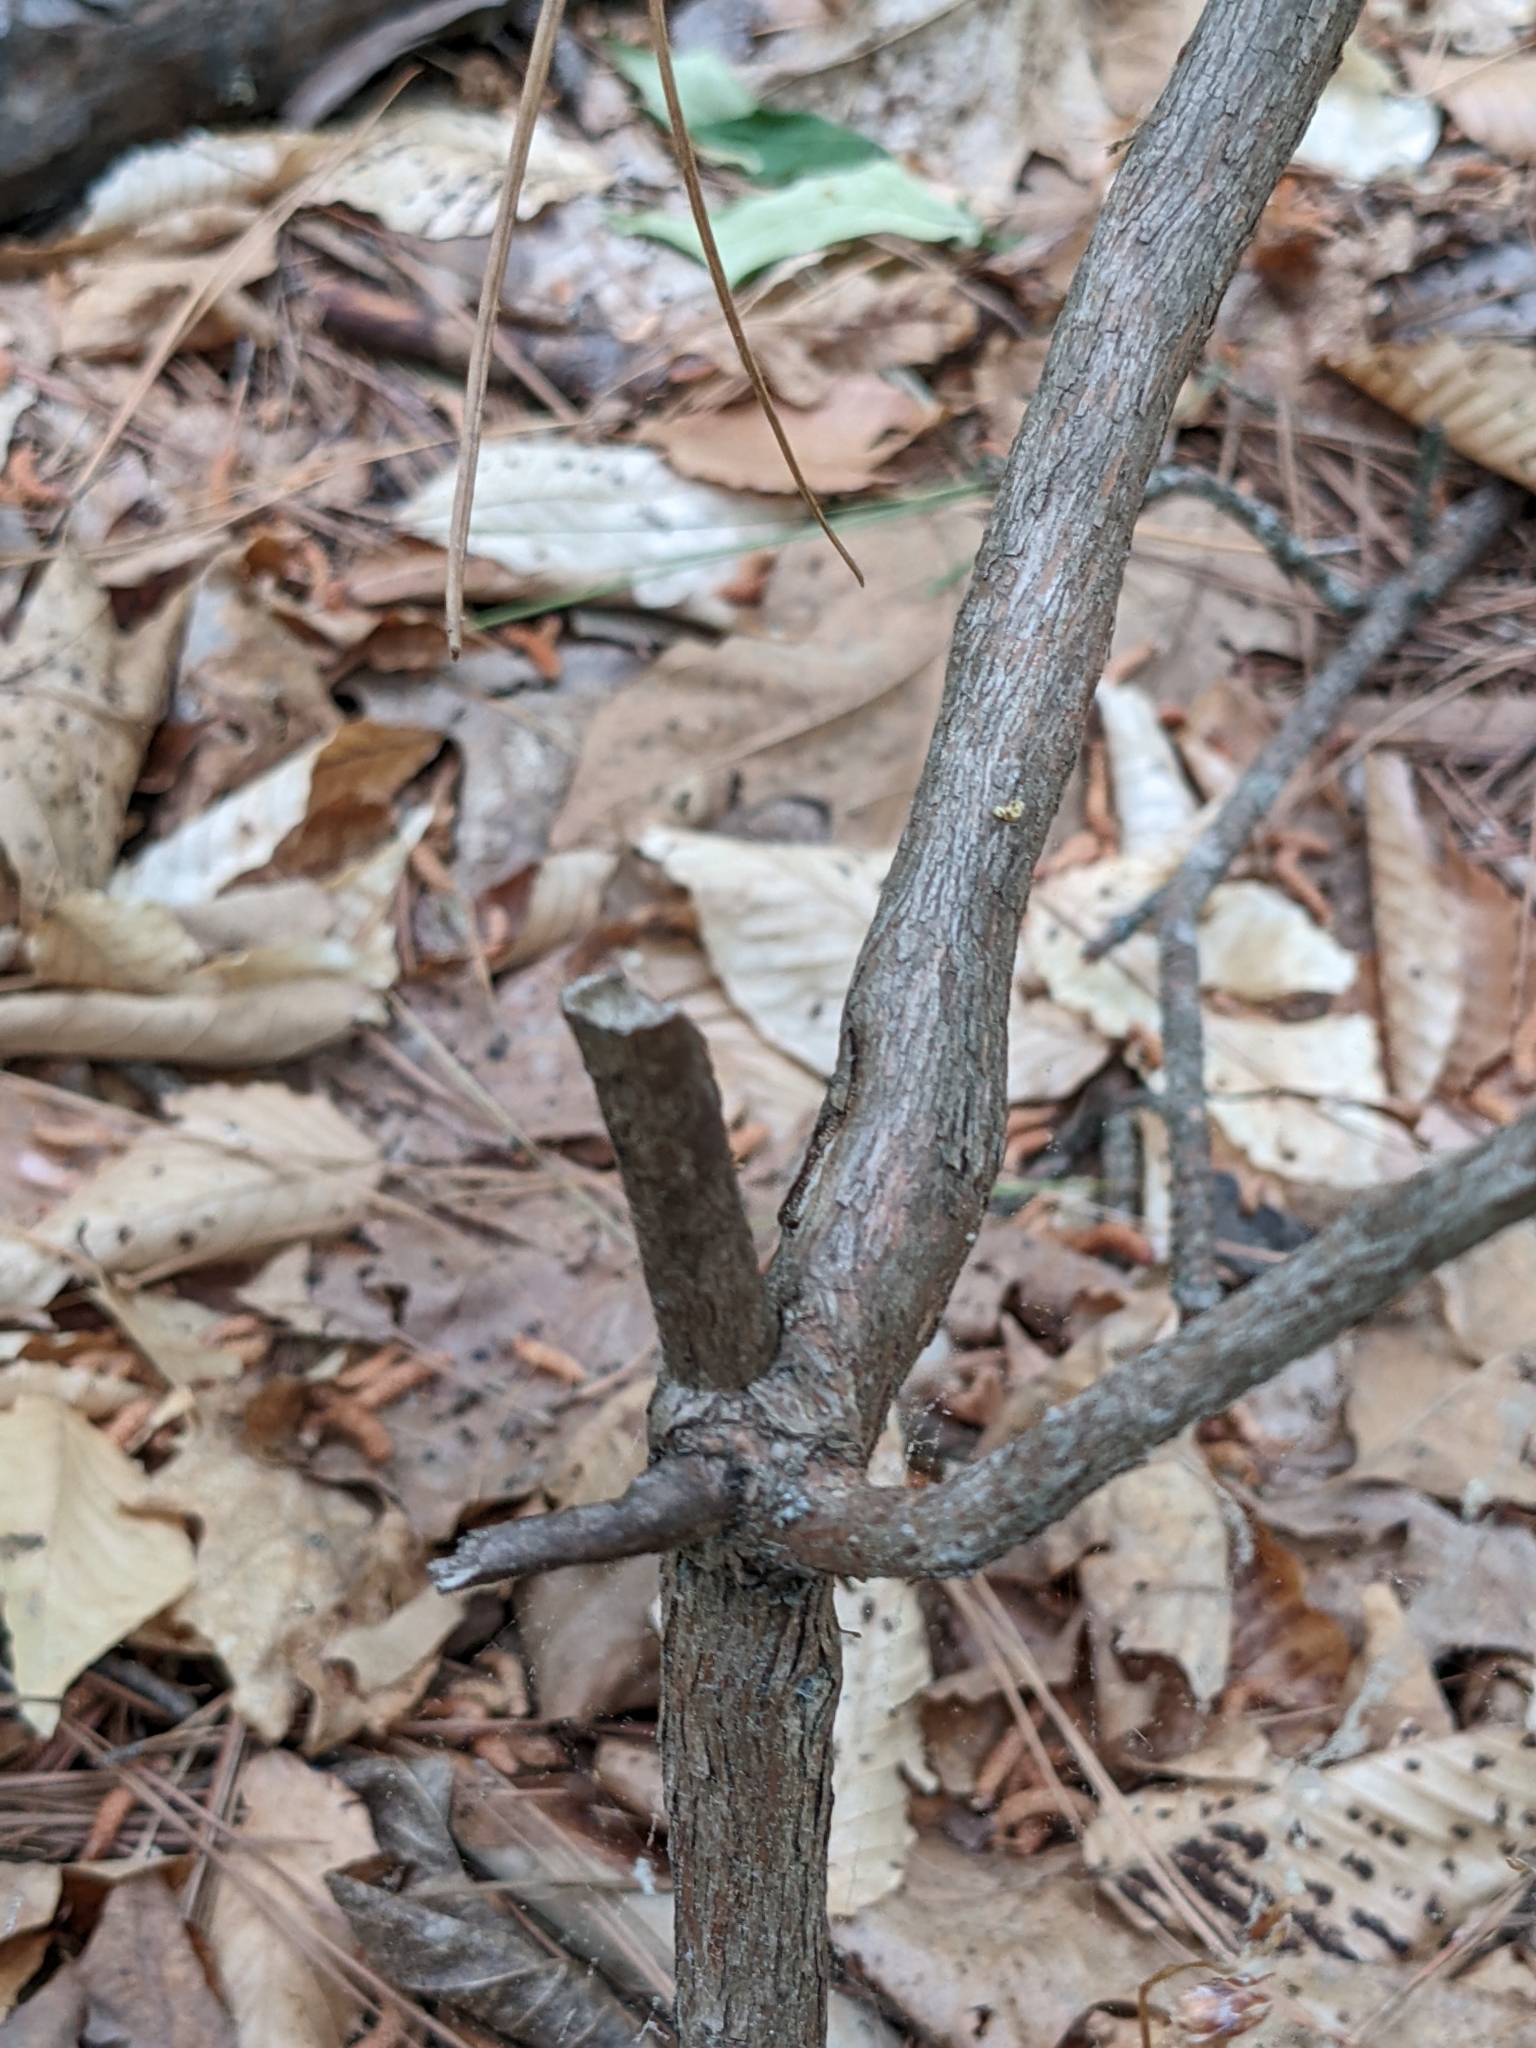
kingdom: Plantae
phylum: Tracheophyta
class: Magnoliopsida
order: Ericales
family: Ericaceae
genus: Vaccinium
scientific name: Vaccinium stamineum
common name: Deerberry
